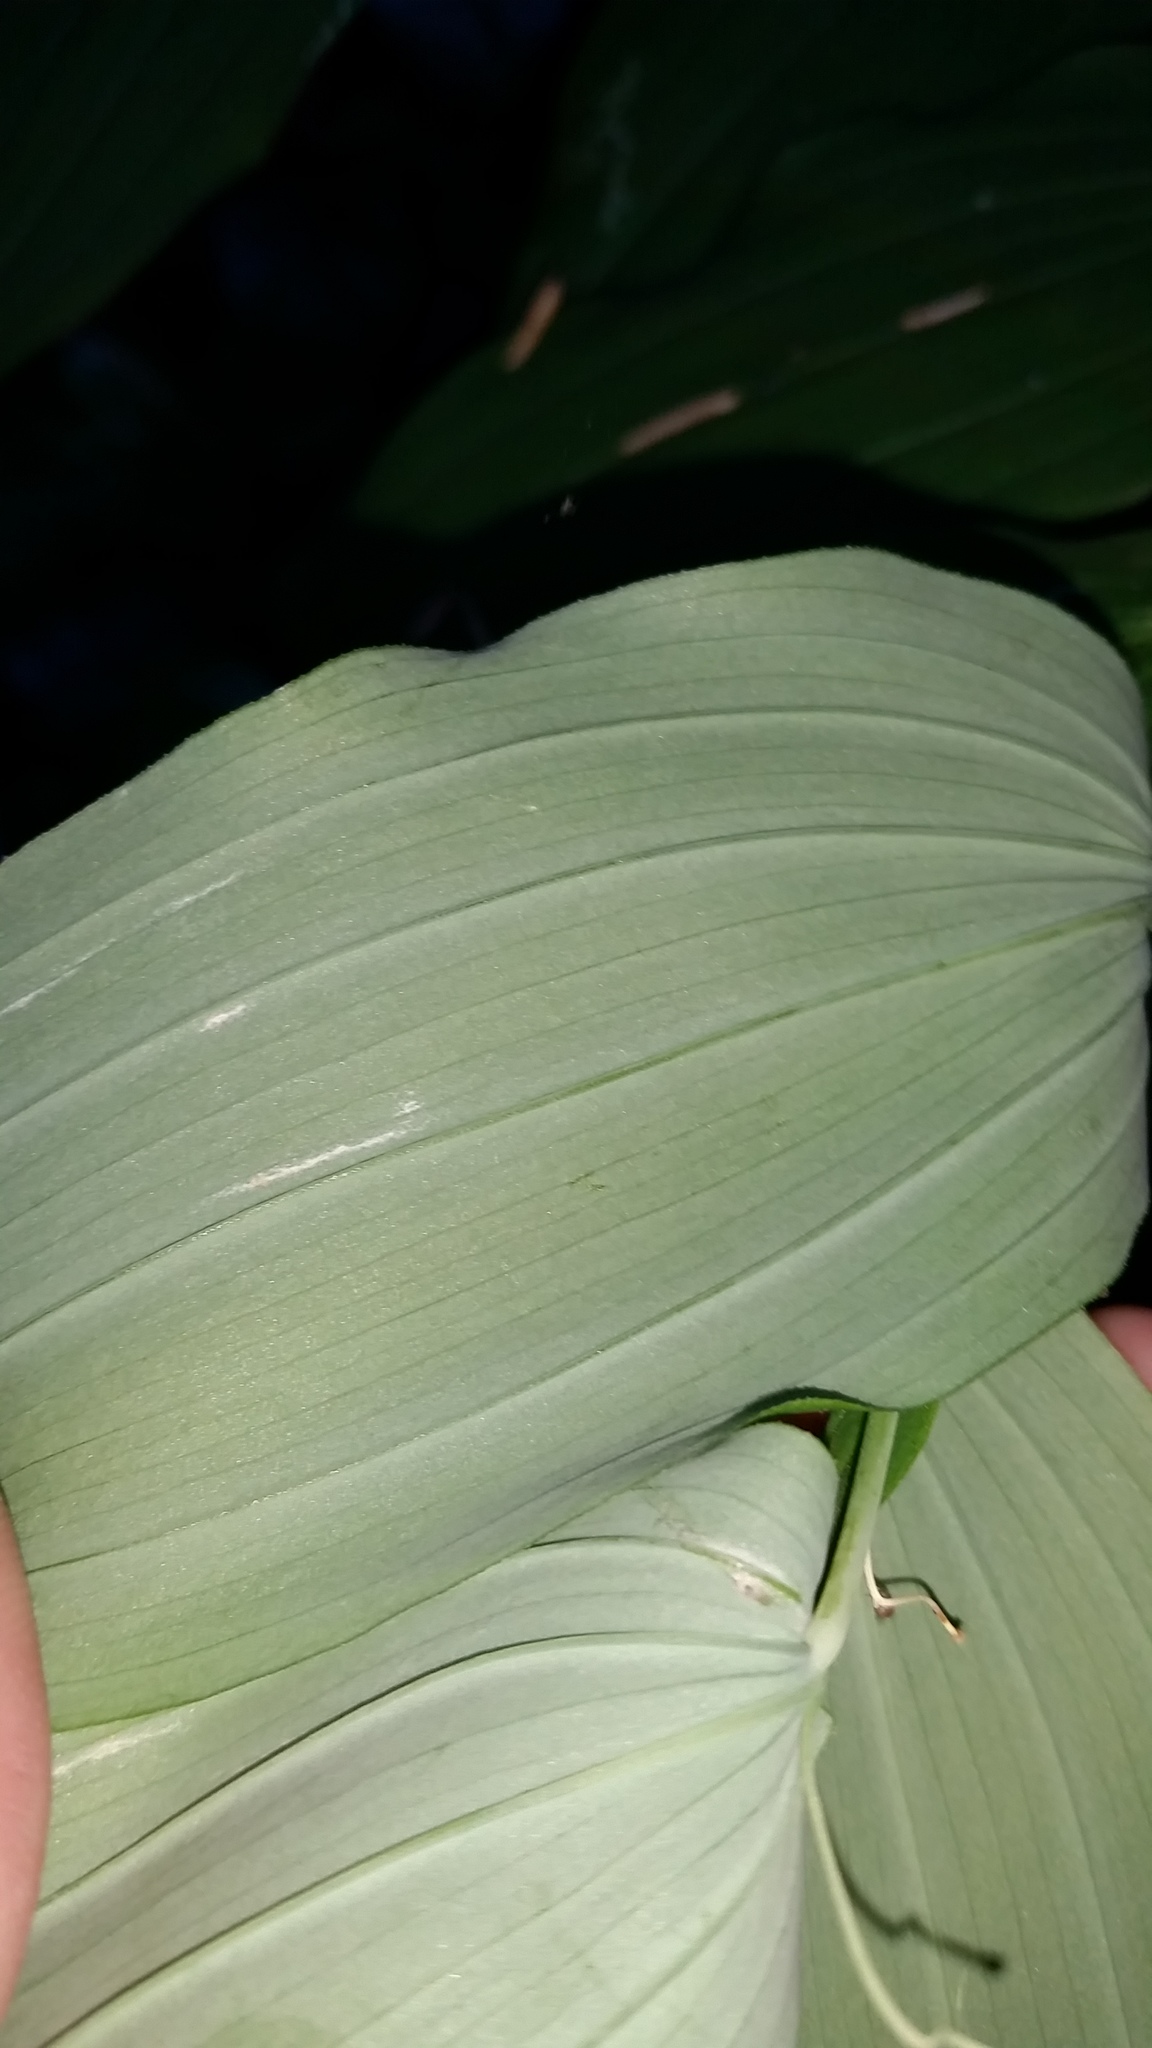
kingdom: Plantae
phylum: Tracheophyta
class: Liliopsida
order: Liliales
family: Liliaceae
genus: Streptopus
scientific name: Streptopus amplexifolius
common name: Clasp twisted stalk
